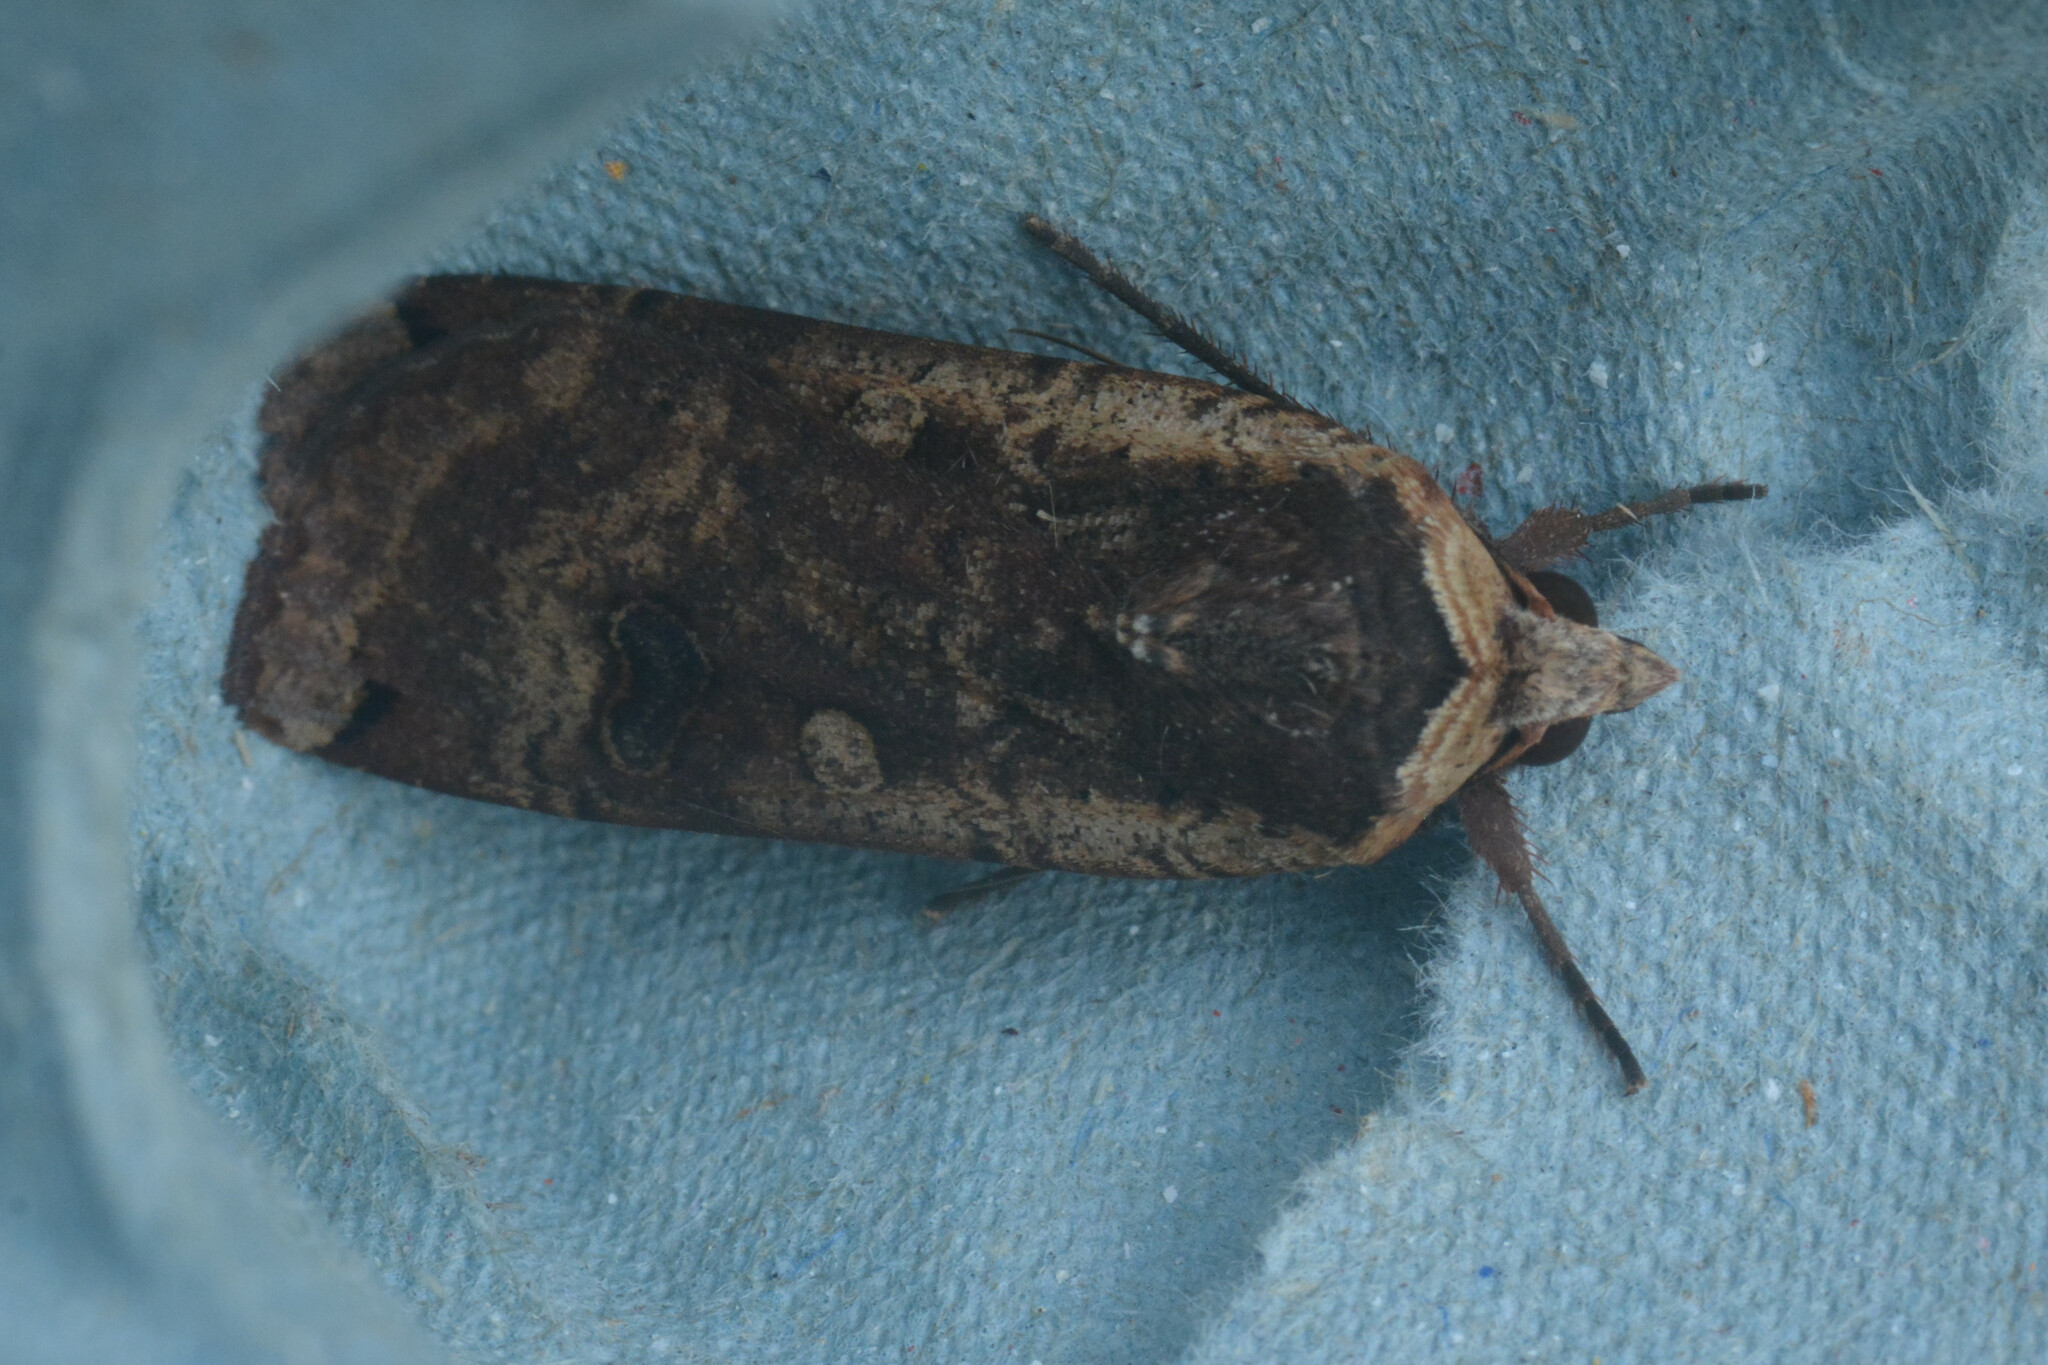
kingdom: Animalia
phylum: Arthropoda
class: Insecta
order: Lepidoptera
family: Noctuidae
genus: Noctua
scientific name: Noctua pronuba
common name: Large yellow underwing
